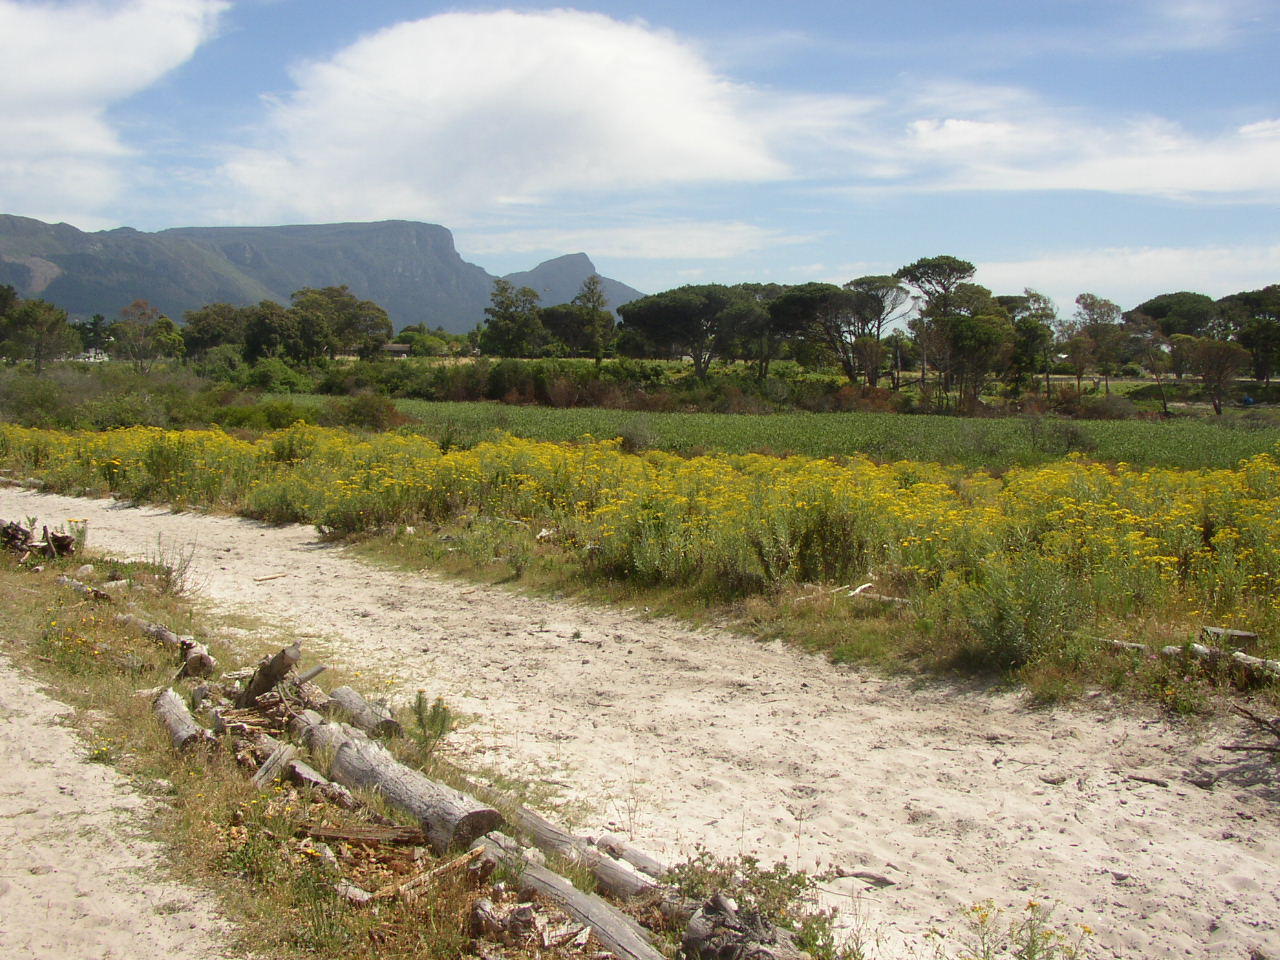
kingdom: Plantae
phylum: Tracheophyta
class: Magnoliopsida
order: Asterales
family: Asteraceae
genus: Senecio
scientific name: Senecio pterophorus
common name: Shoddy ragwort
